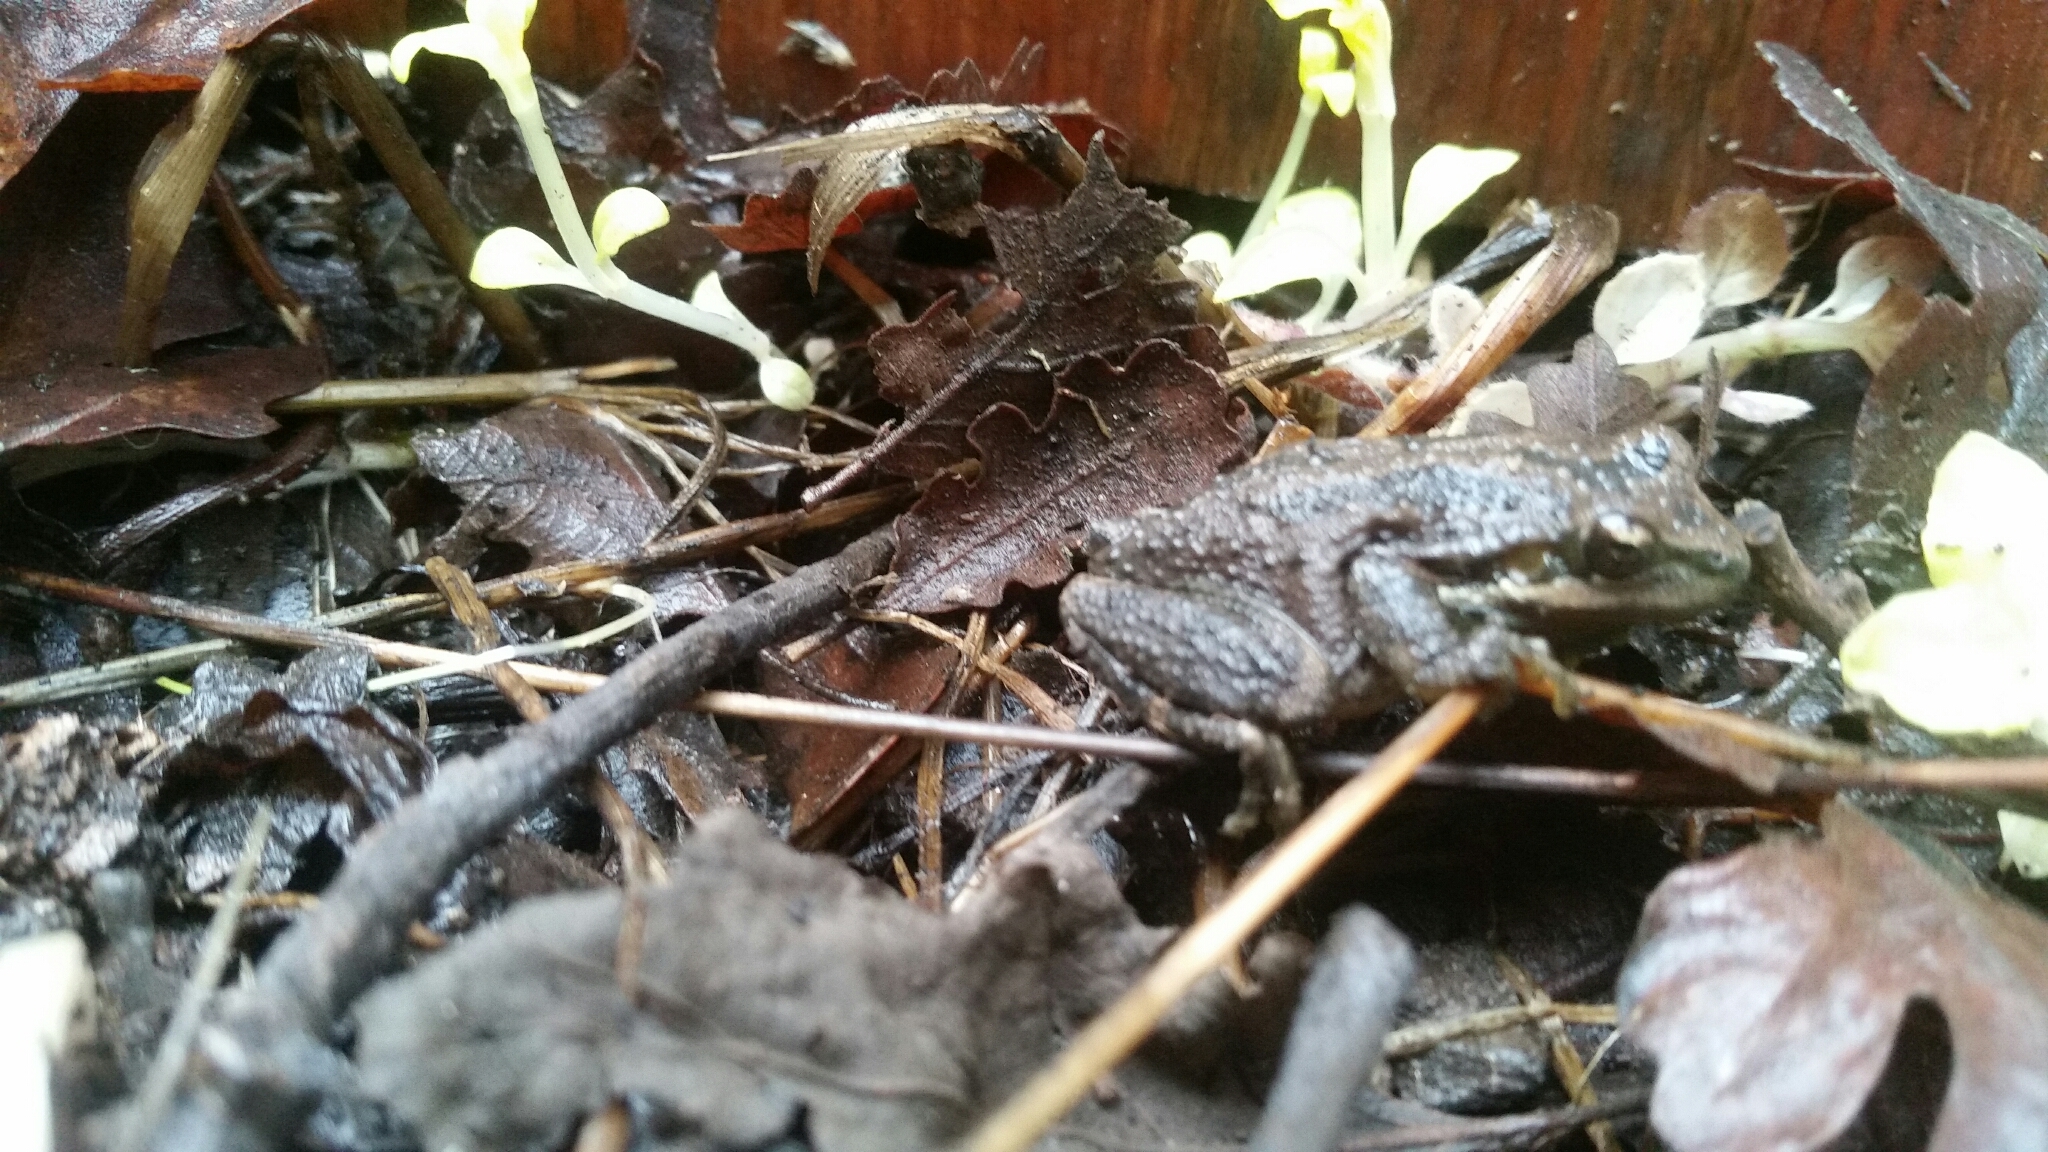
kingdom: Animalia
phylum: Chordata
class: Amphibia
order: Anura
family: Hylidae
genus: Pseudacris
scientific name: Pseudacris regilla
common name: Pacific chorus frog
